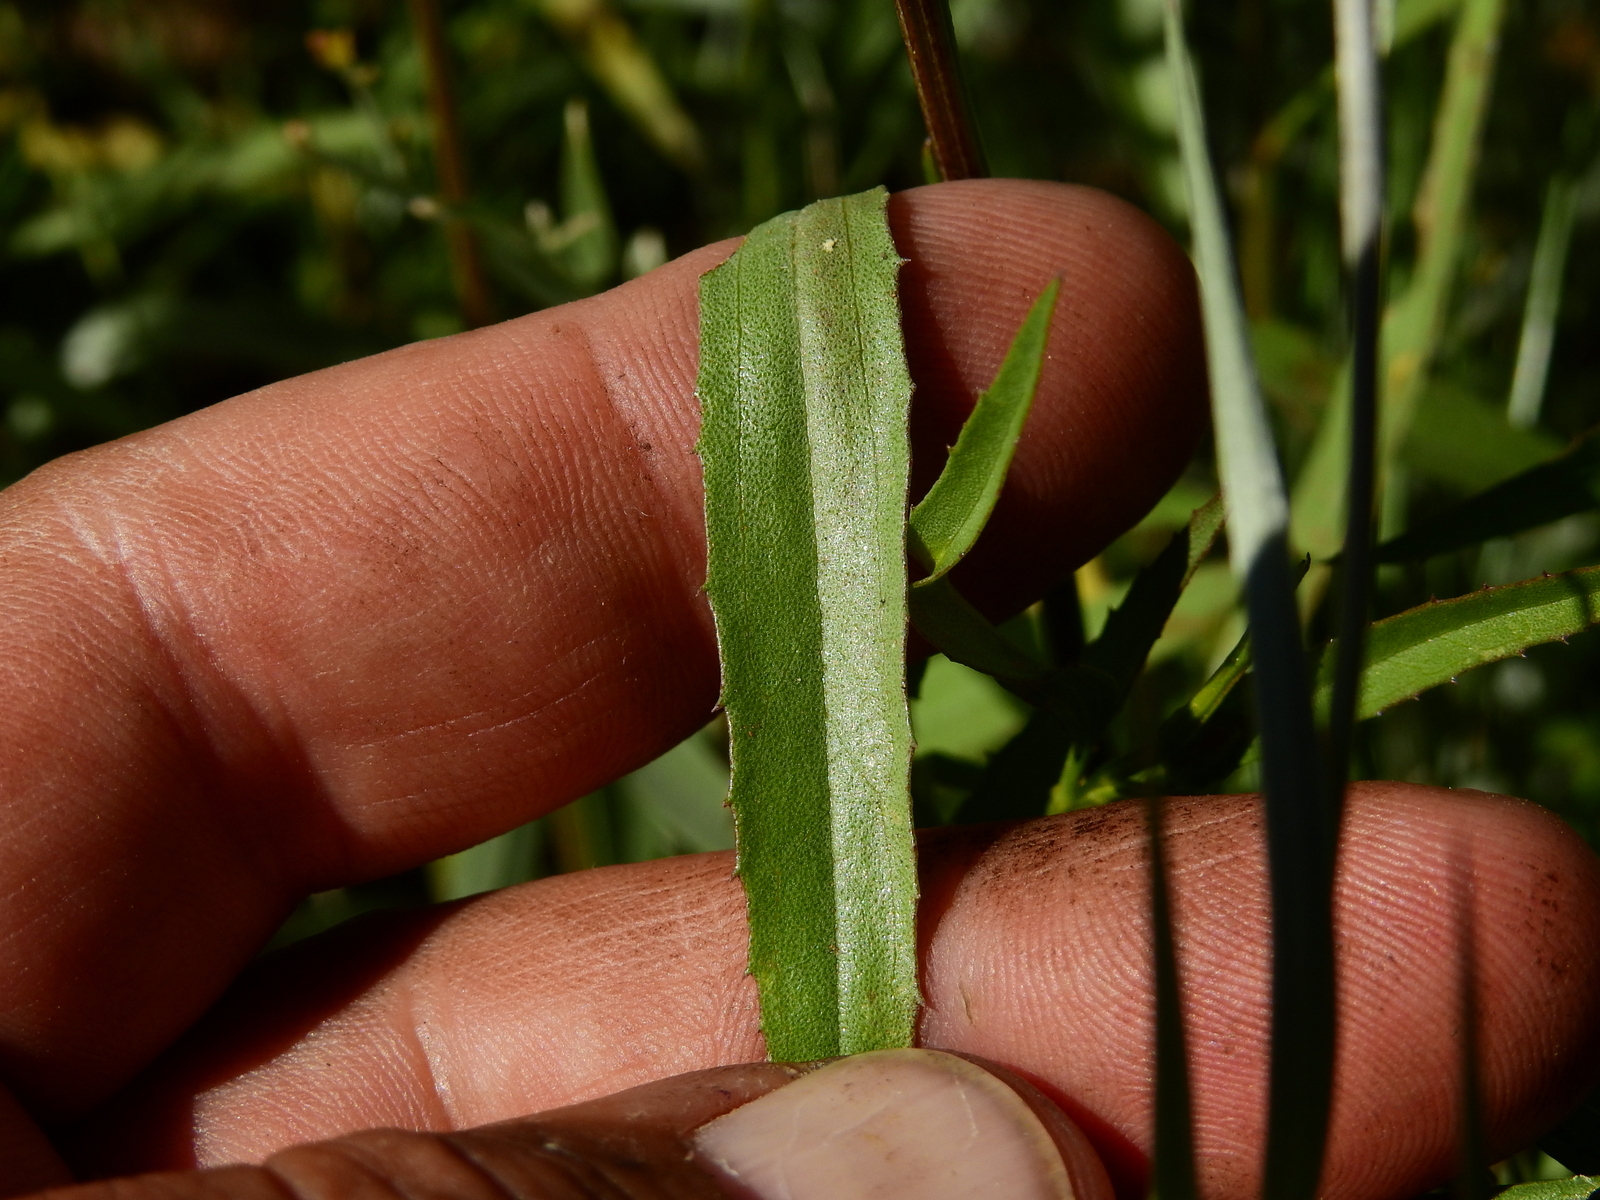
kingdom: Plantae
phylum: Tracheophyta
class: Magnoliopsida
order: Asterales
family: Asteraceae
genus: Baccharis
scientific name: Baccharis glutinosa
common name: Saltmarsh baccharis
